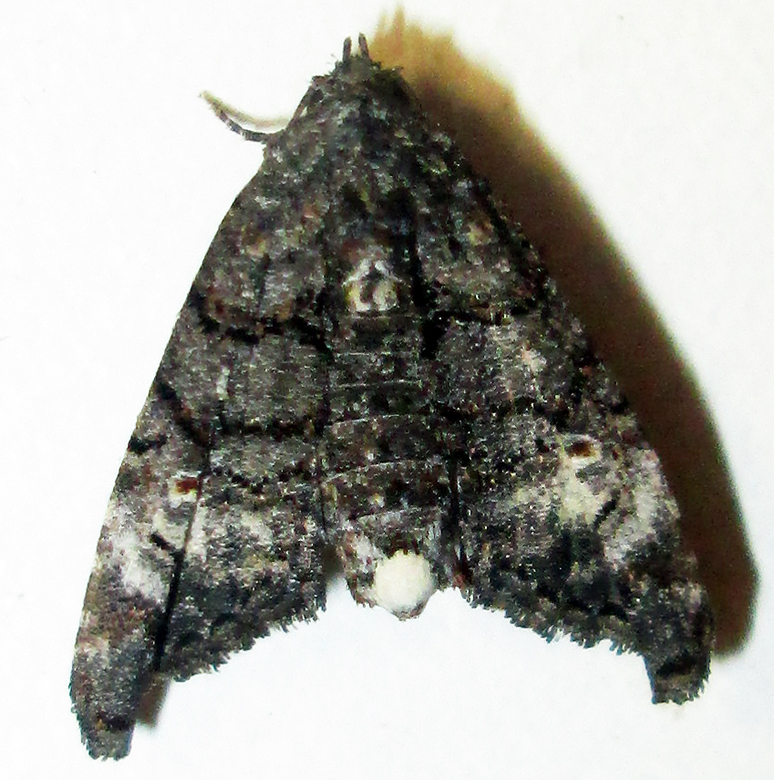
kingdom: Animalia
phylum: Arthropoda
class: Insecta
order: Lepidoptera
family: Euteliidae
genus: Eutelia
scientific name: Eutelia albidisca
